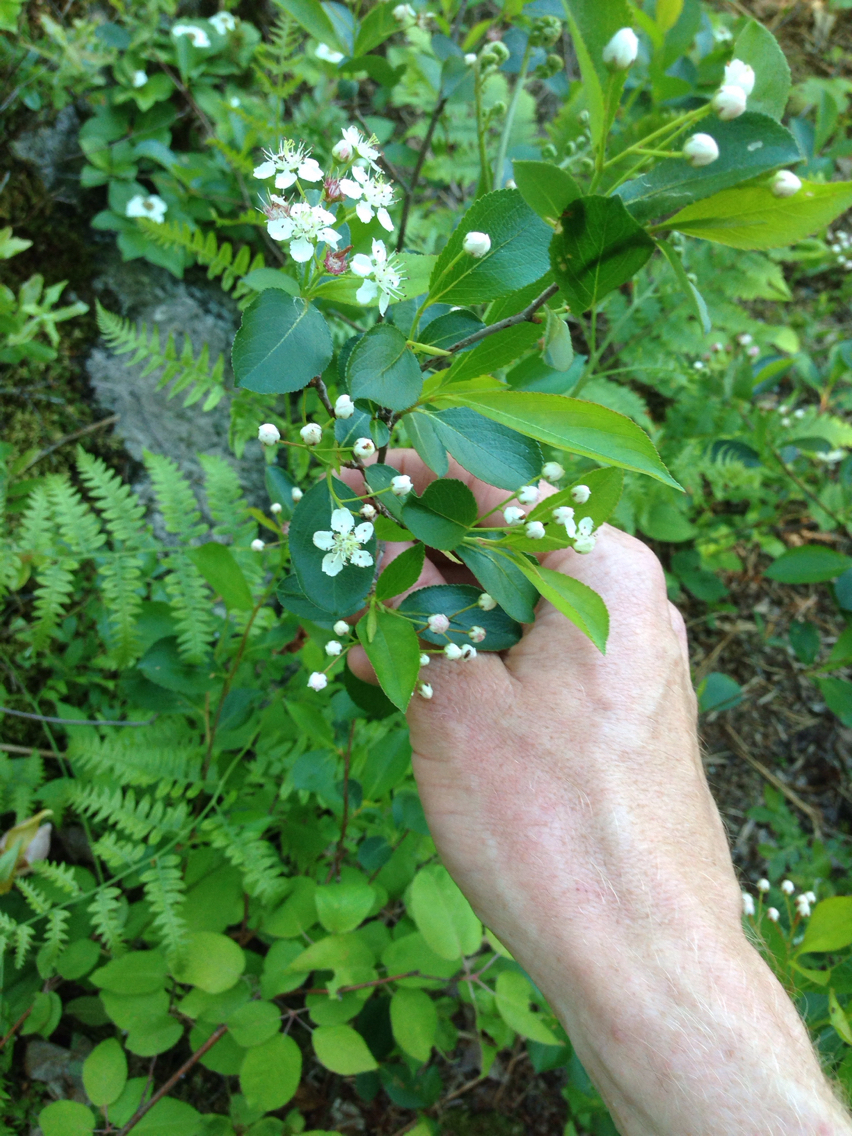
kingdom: Plantae
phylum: Tracheophyta
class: Magnoliopsida
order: Rosales
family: Rosaceae
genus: Aronia
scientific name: Aronia melanocarpa
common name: Black chokeberry
